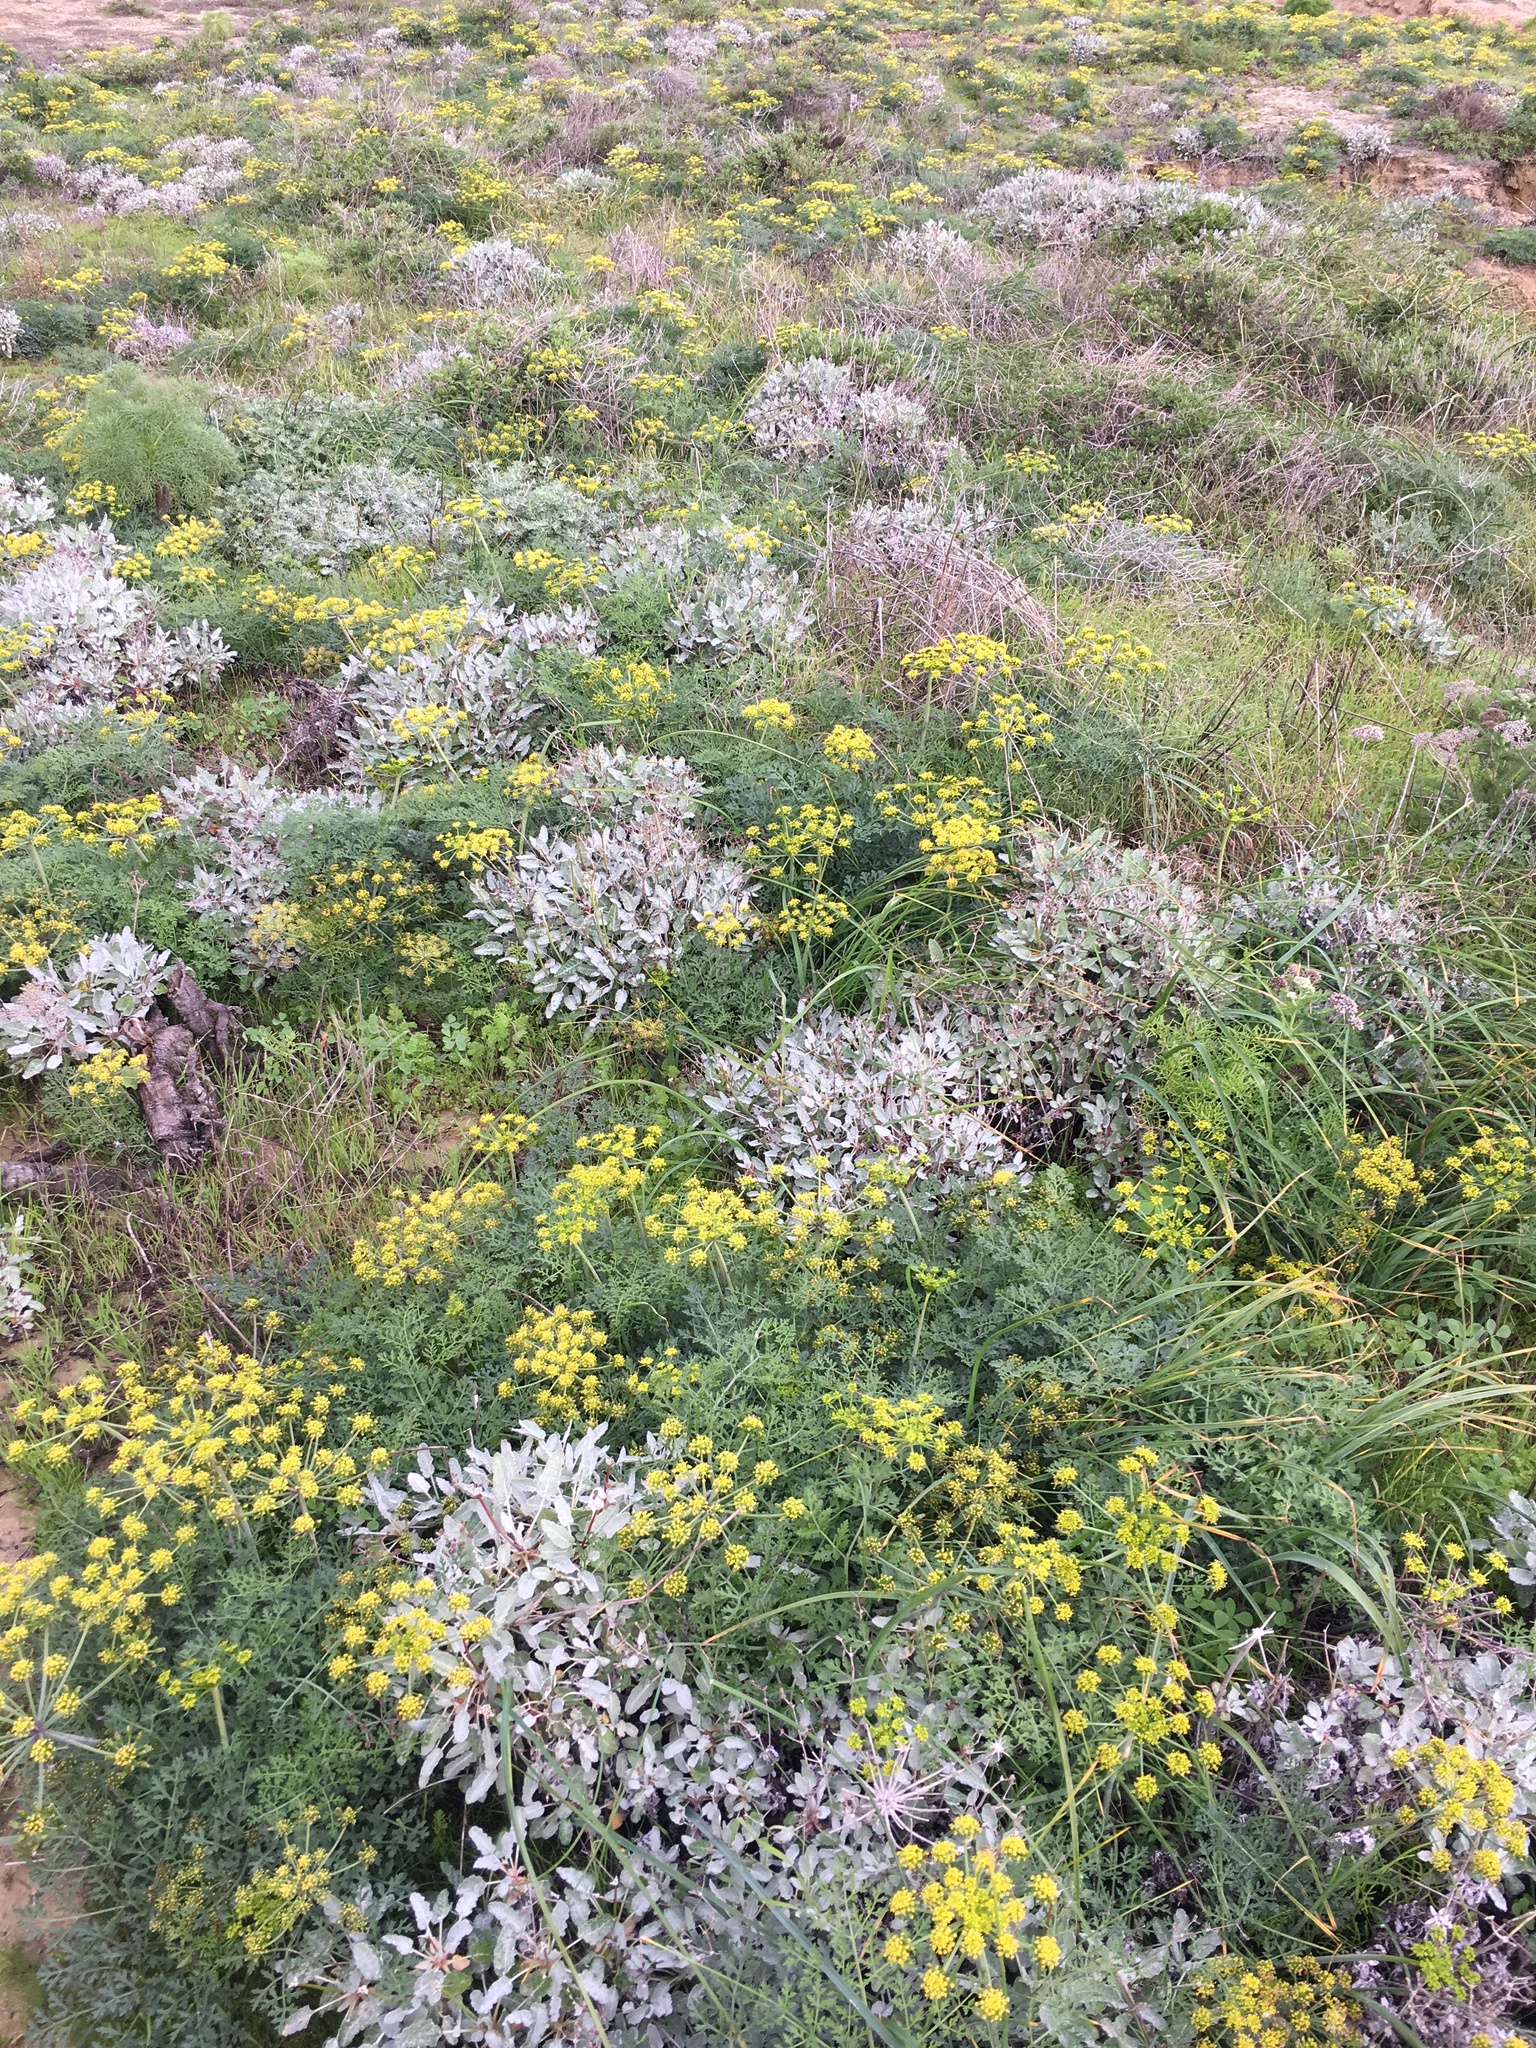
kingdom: Plantae
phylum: Tracheophyta
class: Magnoliopsida
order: Apiales
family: Apiaceae
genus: Lomatium
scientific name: Lomatium insulare
